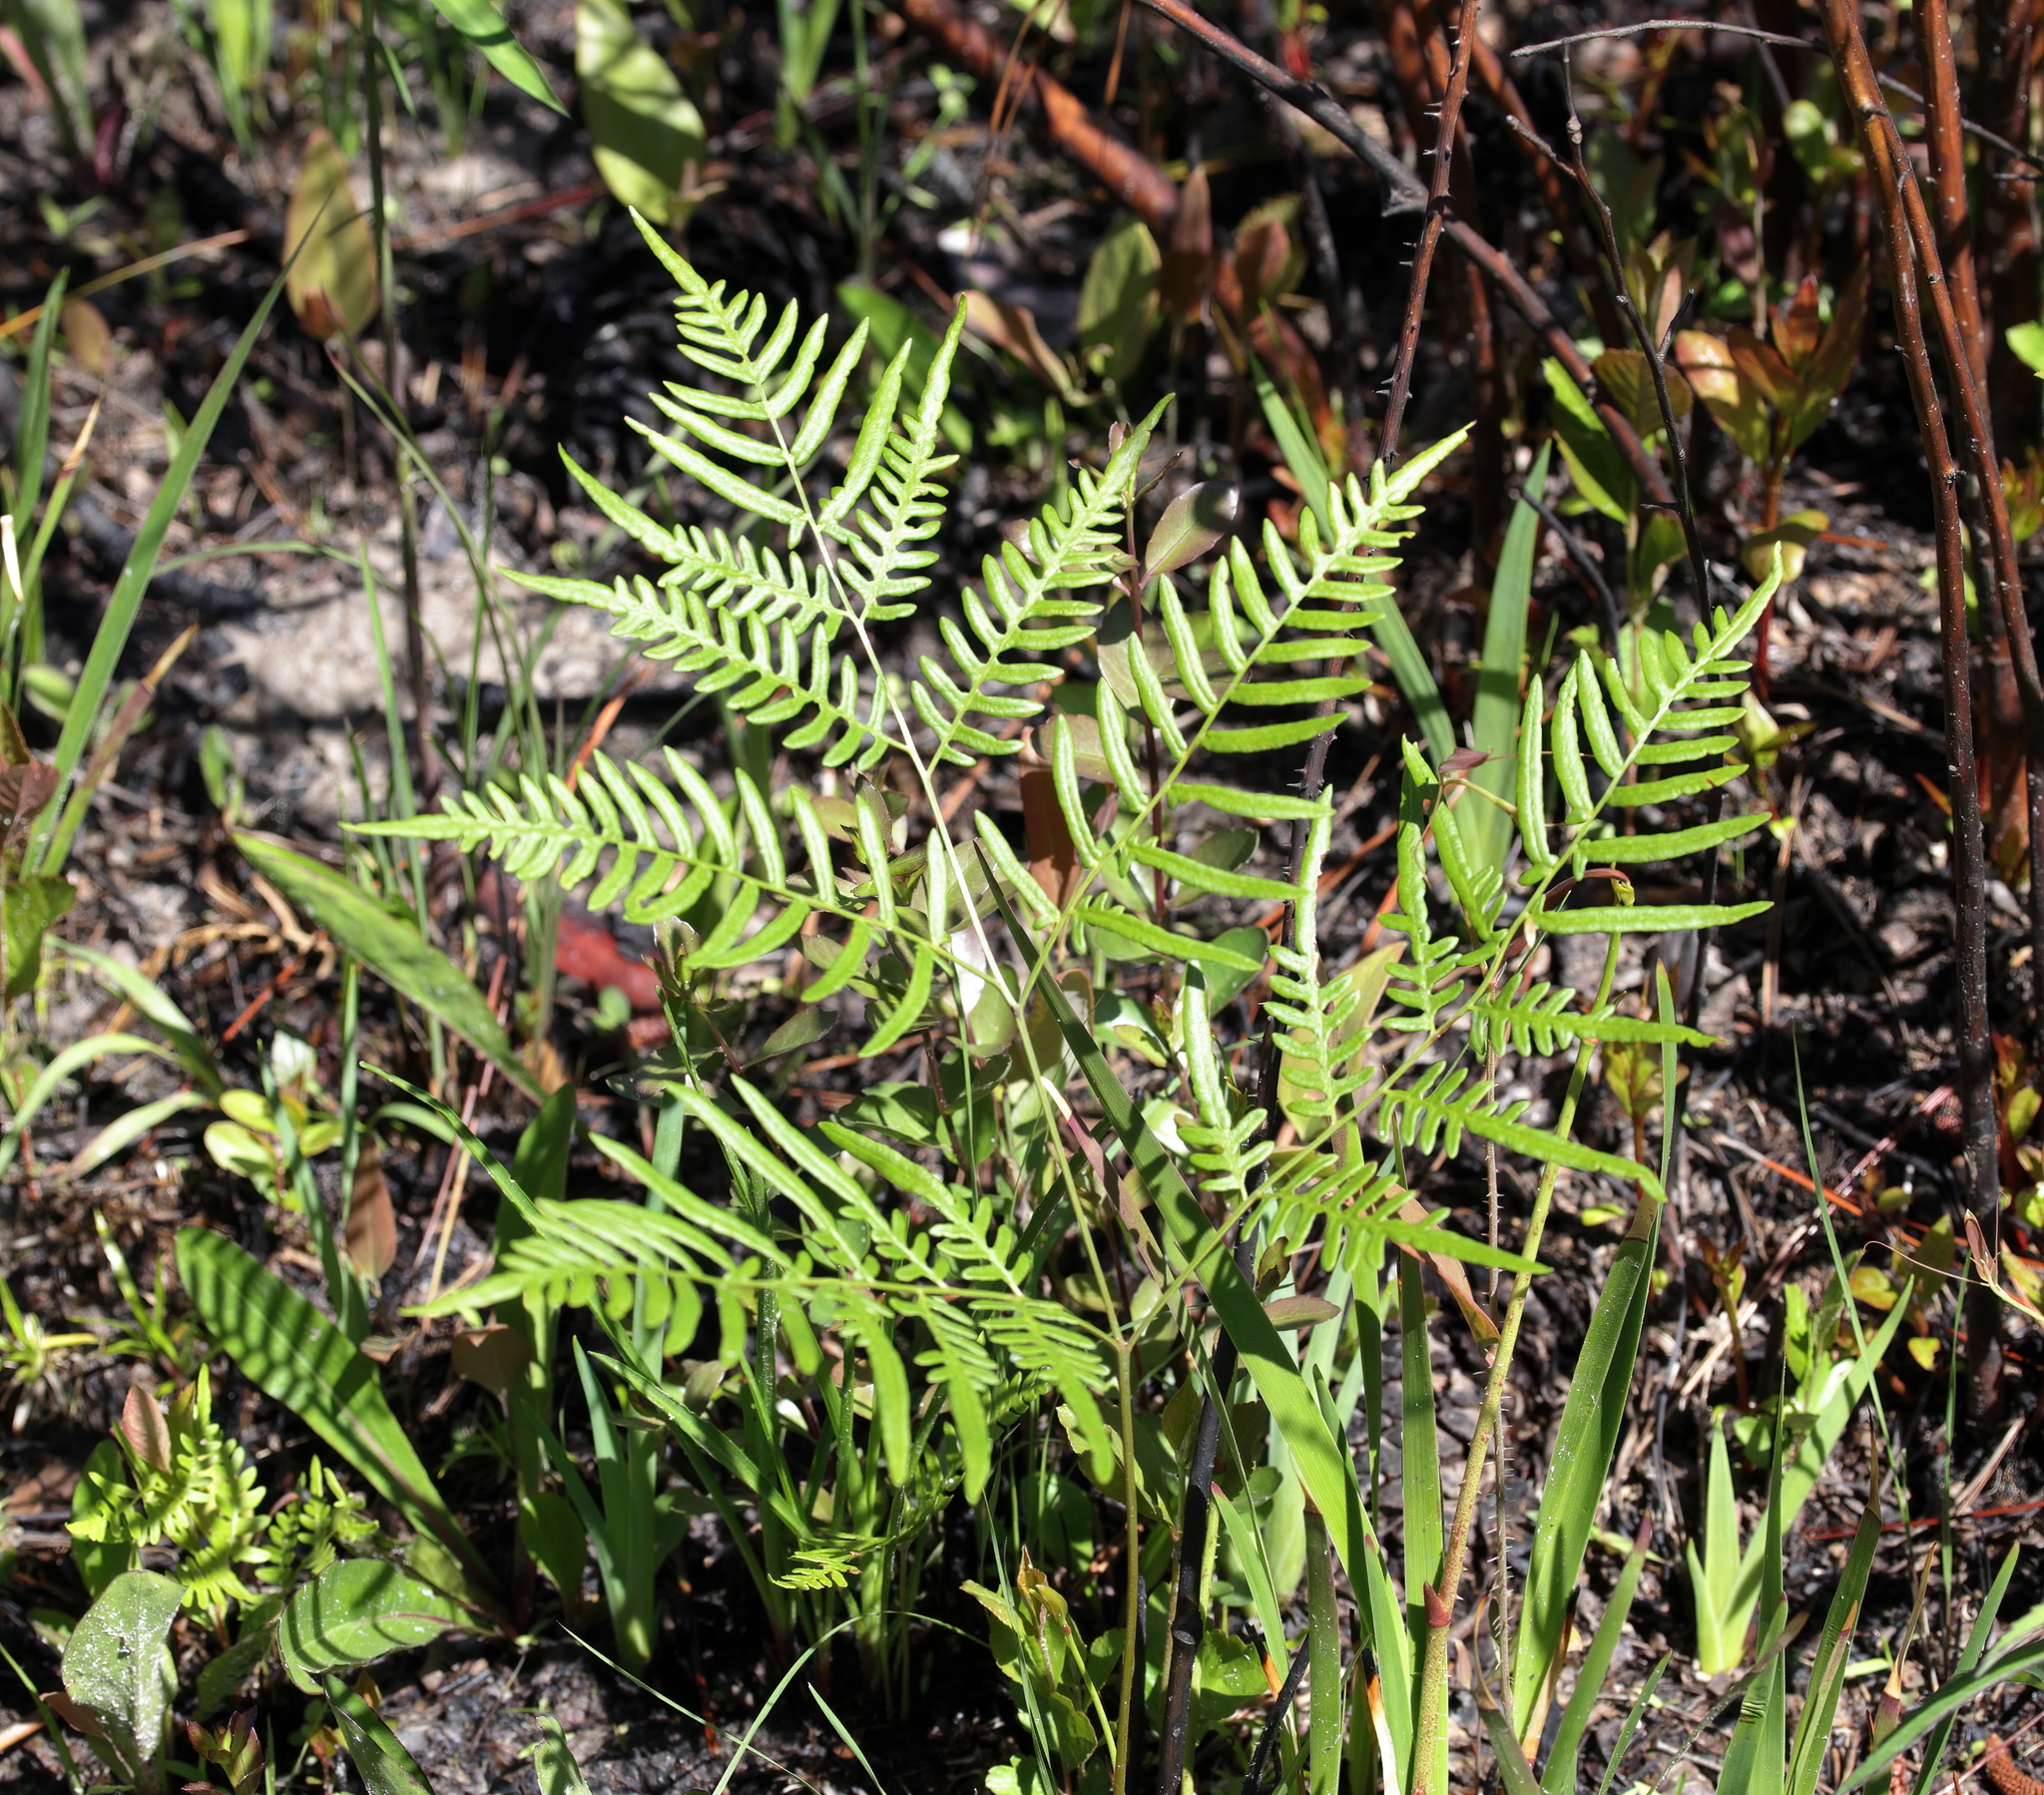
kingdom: Plantae
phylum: Tracheophyta
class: Polypodiopsida
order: Polypodiales
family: Dennstaedtiaceae
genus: Pteridium
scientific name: Pteridium
